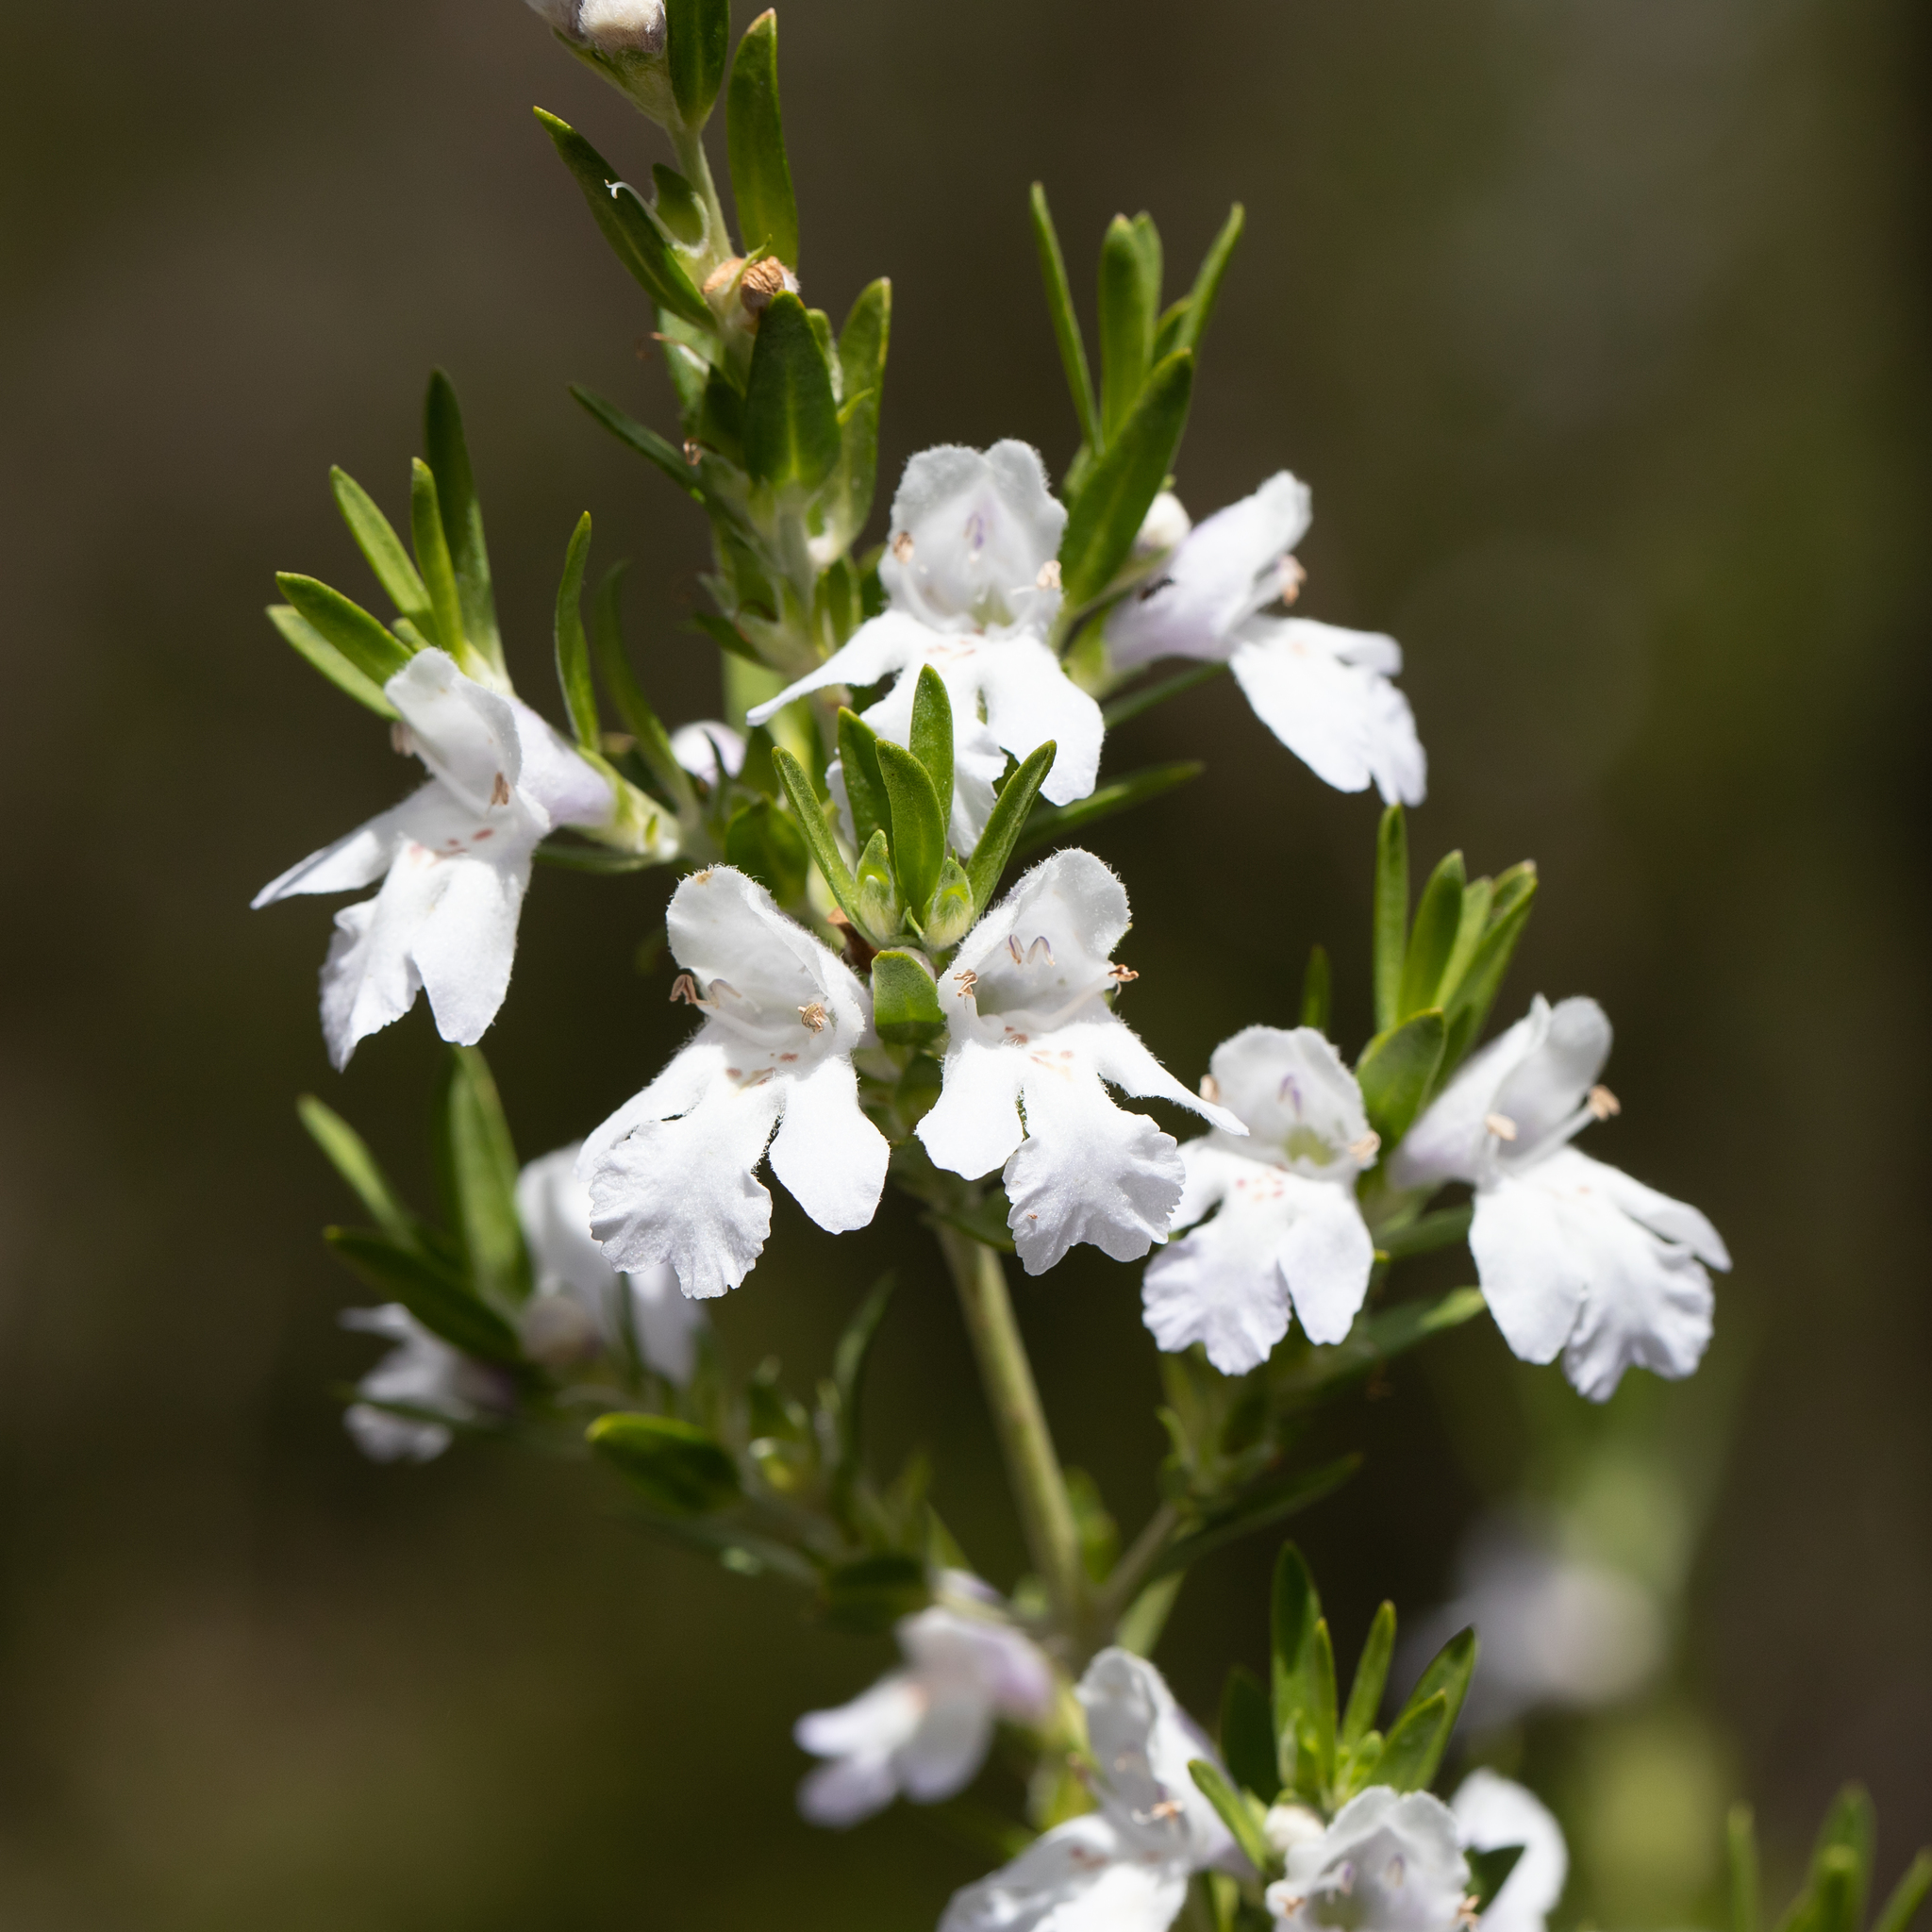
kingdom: Plantae
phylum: Tracheophyta
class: Magnoliopsida
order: Lamiales
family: Lamiaceae
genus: Prostanthera
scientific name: Prostanthera behriana
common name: Downy mintbush
